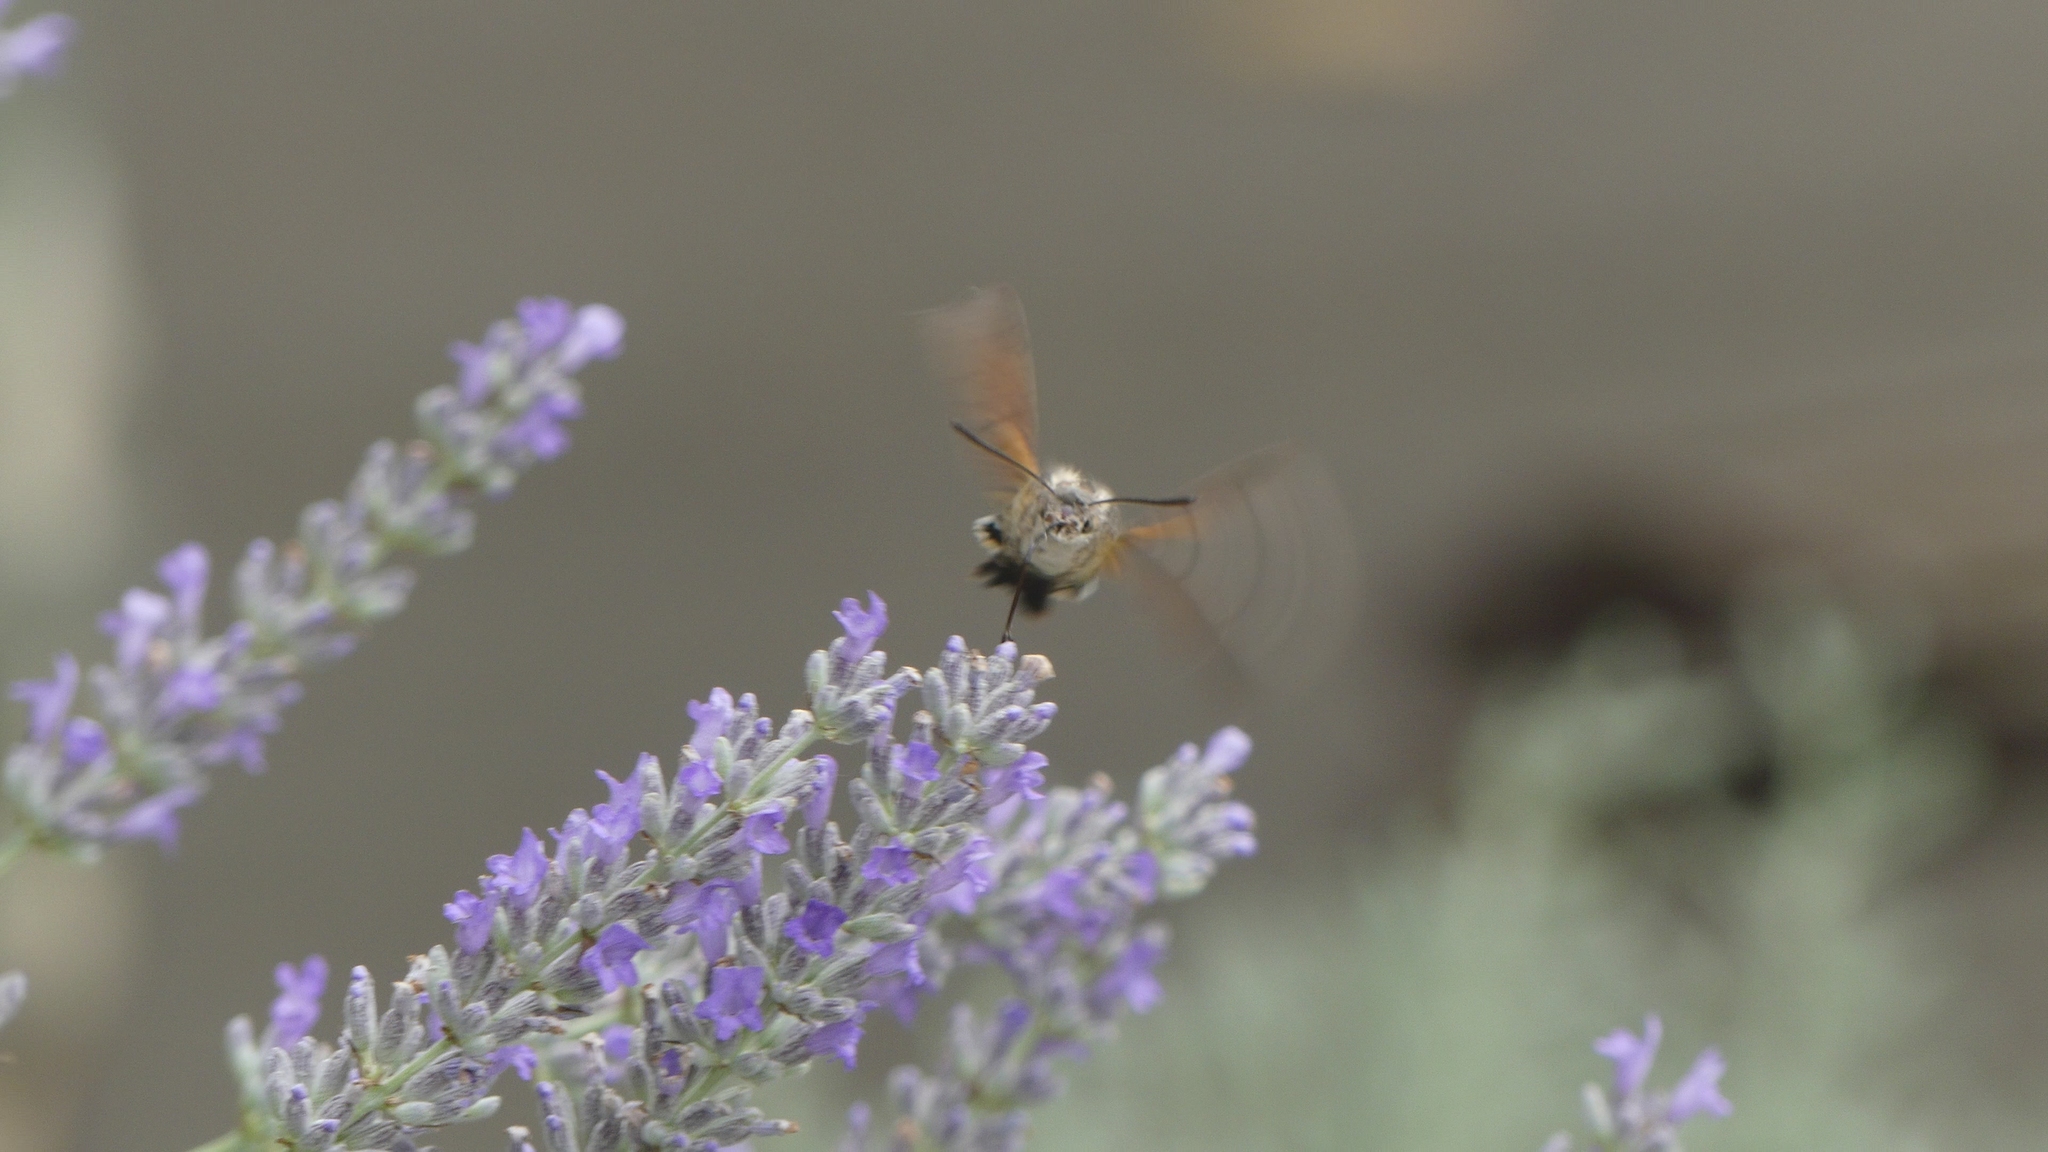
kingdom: Animalia
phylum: Arthropoda
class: Insecta
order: Lepidoptera
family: Sphingidae
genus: Macroglossum
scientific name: Macroglossum stellatarum
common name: Humming-bird hawk-moth
